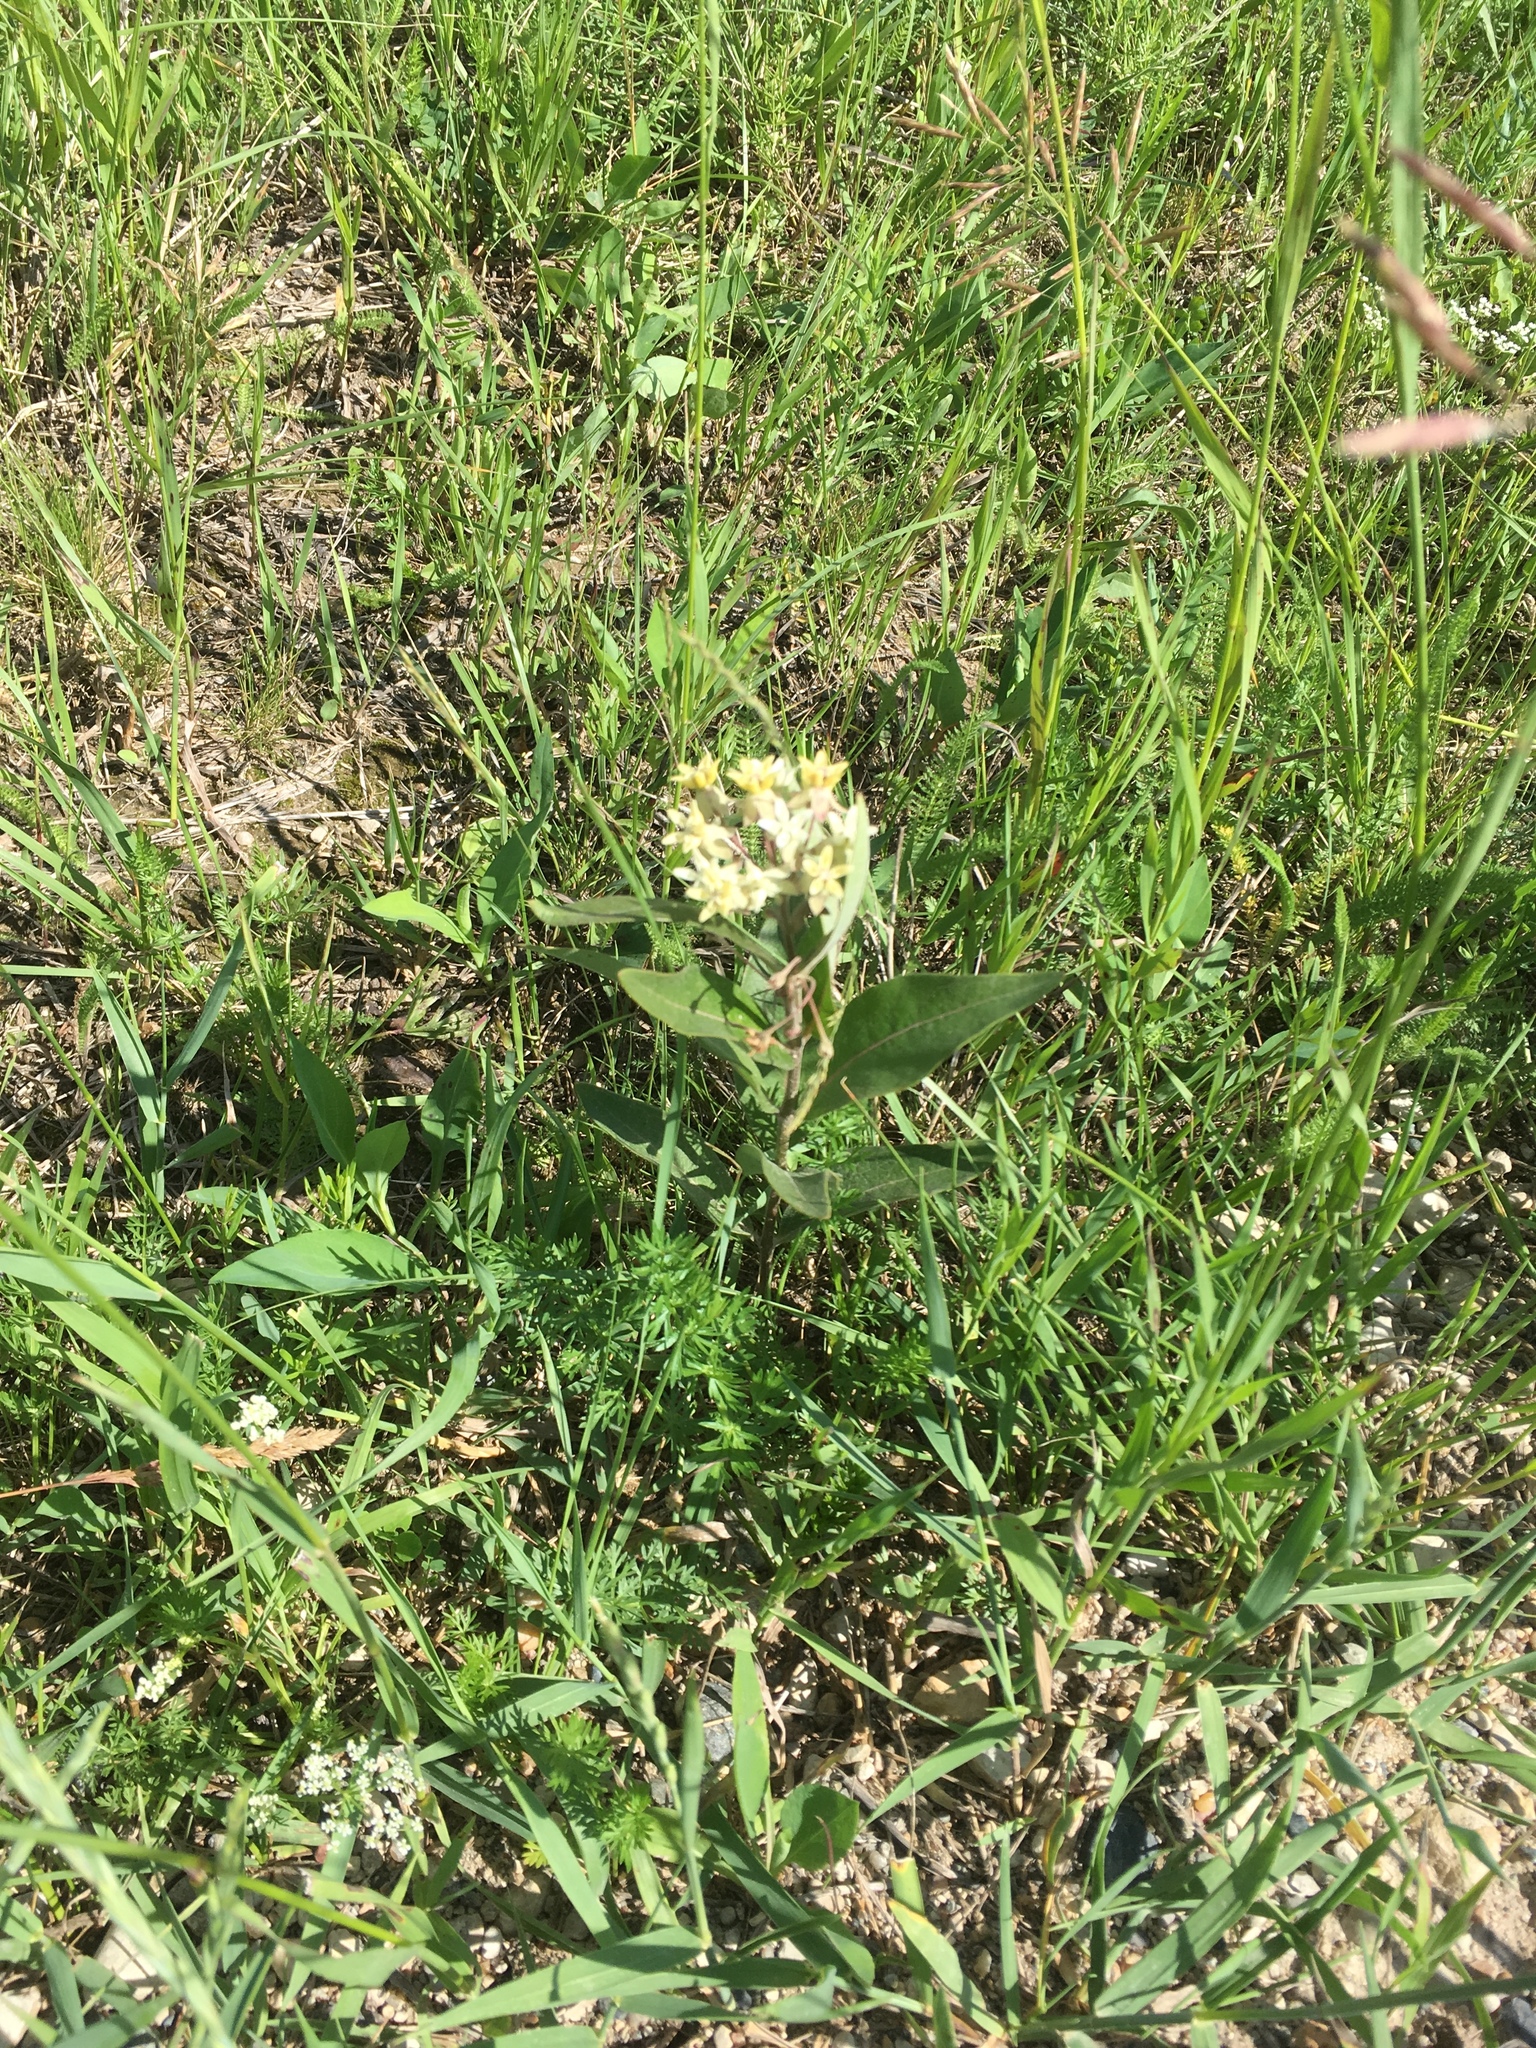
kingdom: Plantae
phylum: Tracheophyta
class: Magnoliopsida
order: Gentianales
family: Apocynaceae
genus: Asclepias
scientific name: Asclepias ovalifolia
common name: Dwarf milkweed
